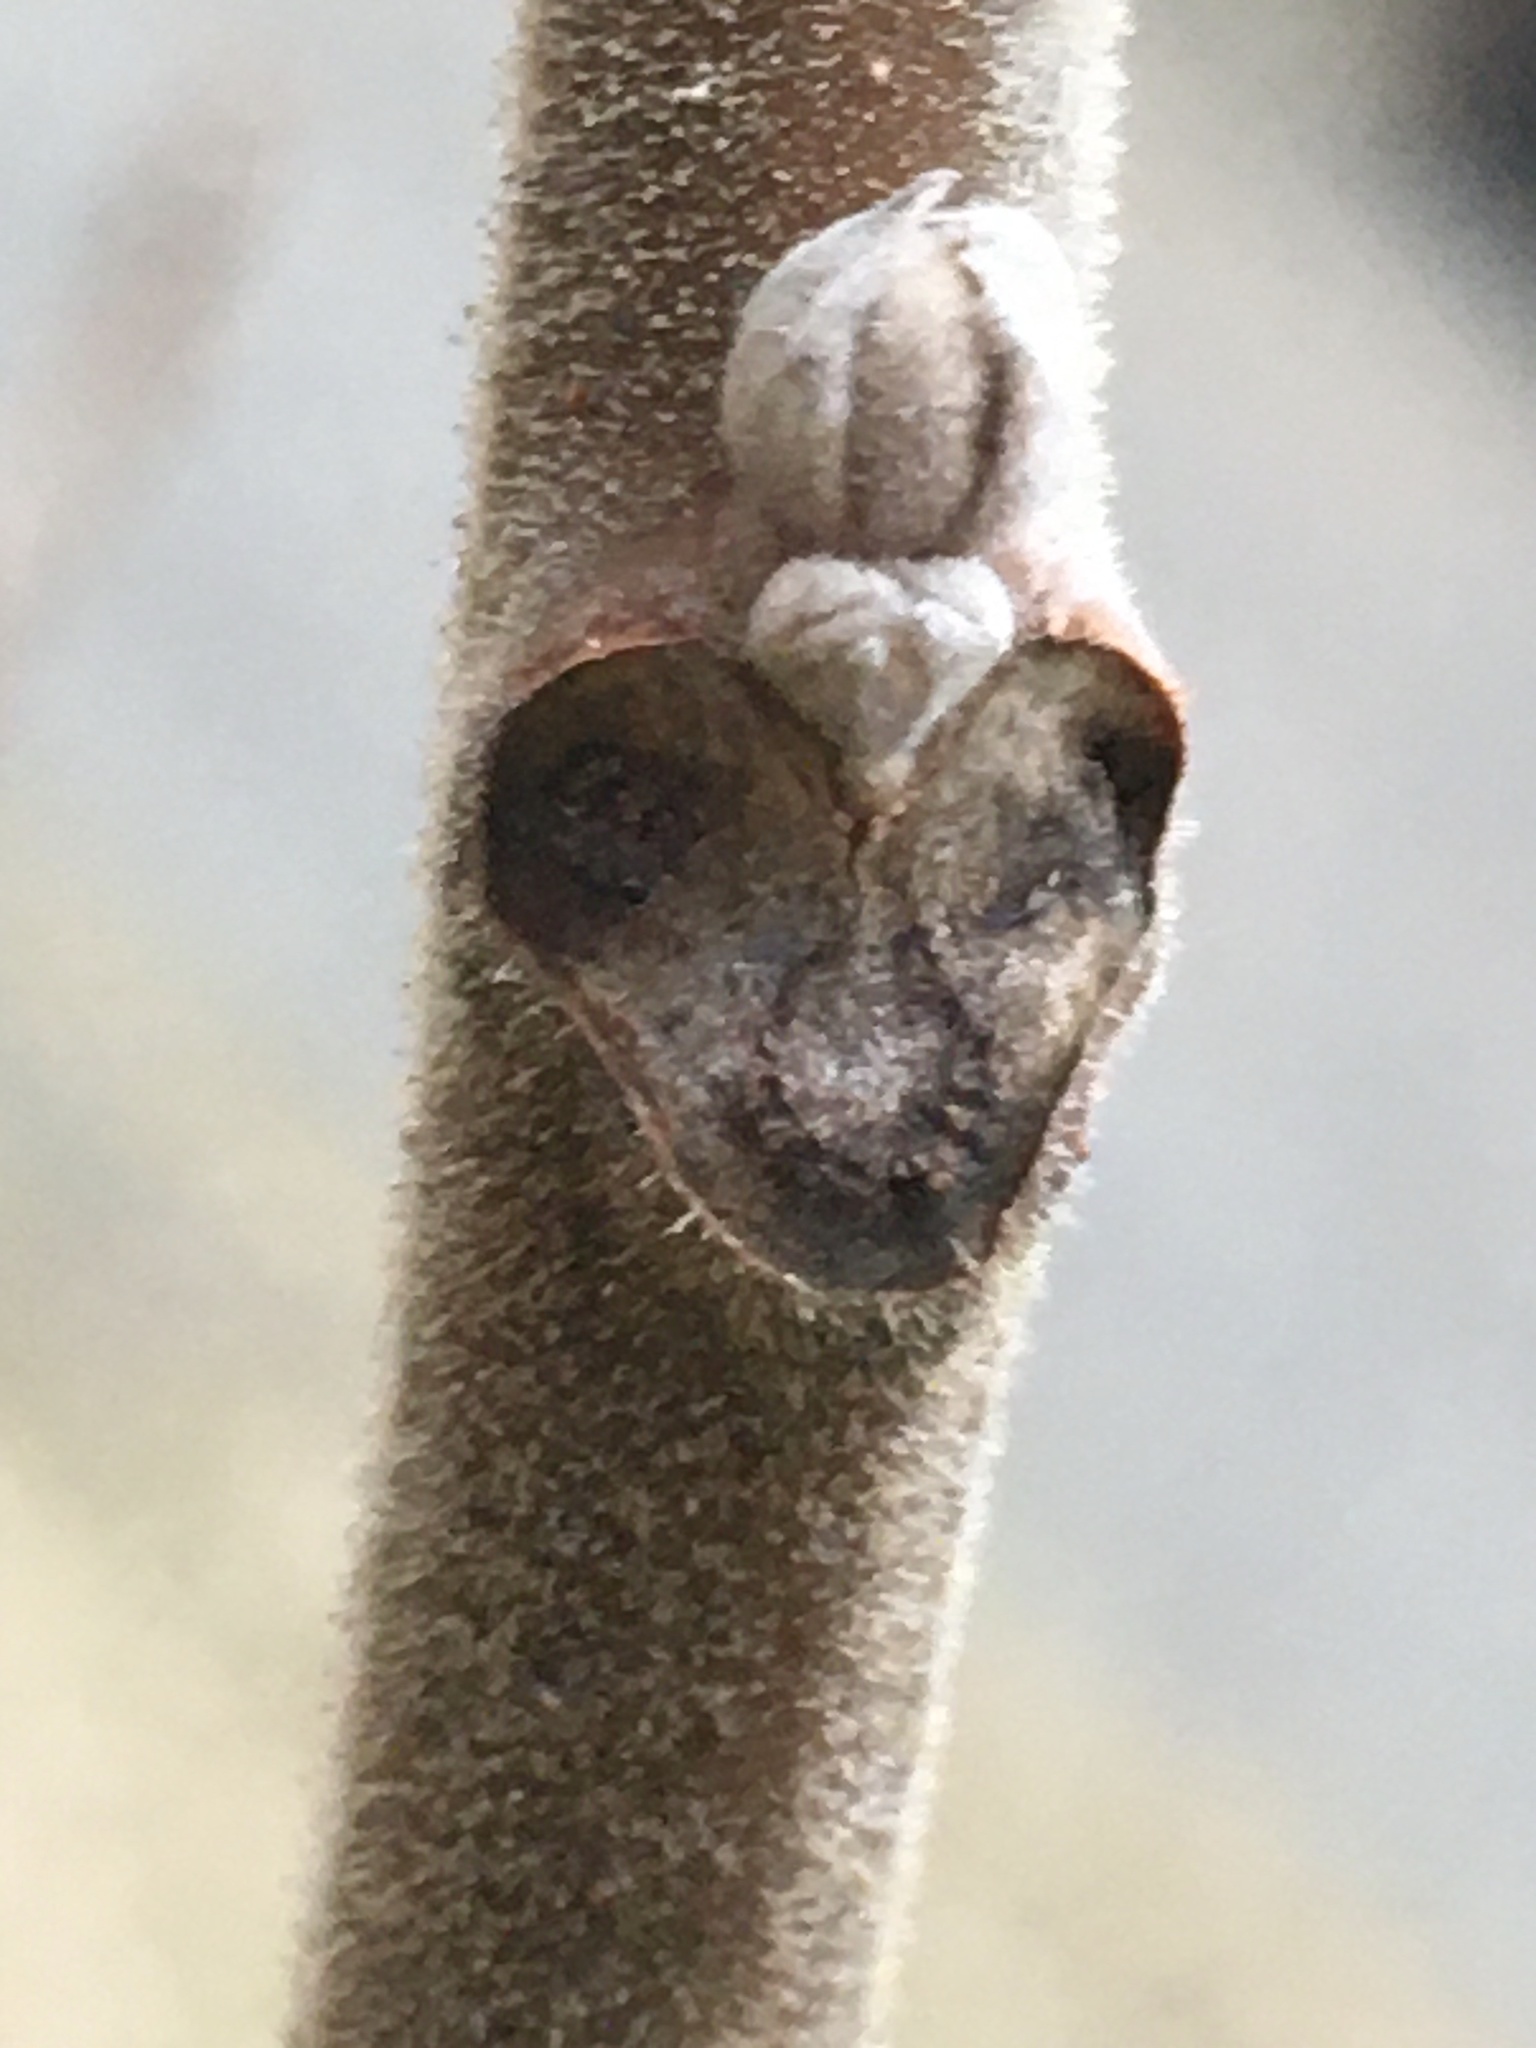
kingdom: Plantae
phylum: Tracheophyta
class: Magnoliopsida
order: Fagales
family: Juglandaceae
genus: Juglans
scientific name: Juglans nigra
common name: Black walnut
